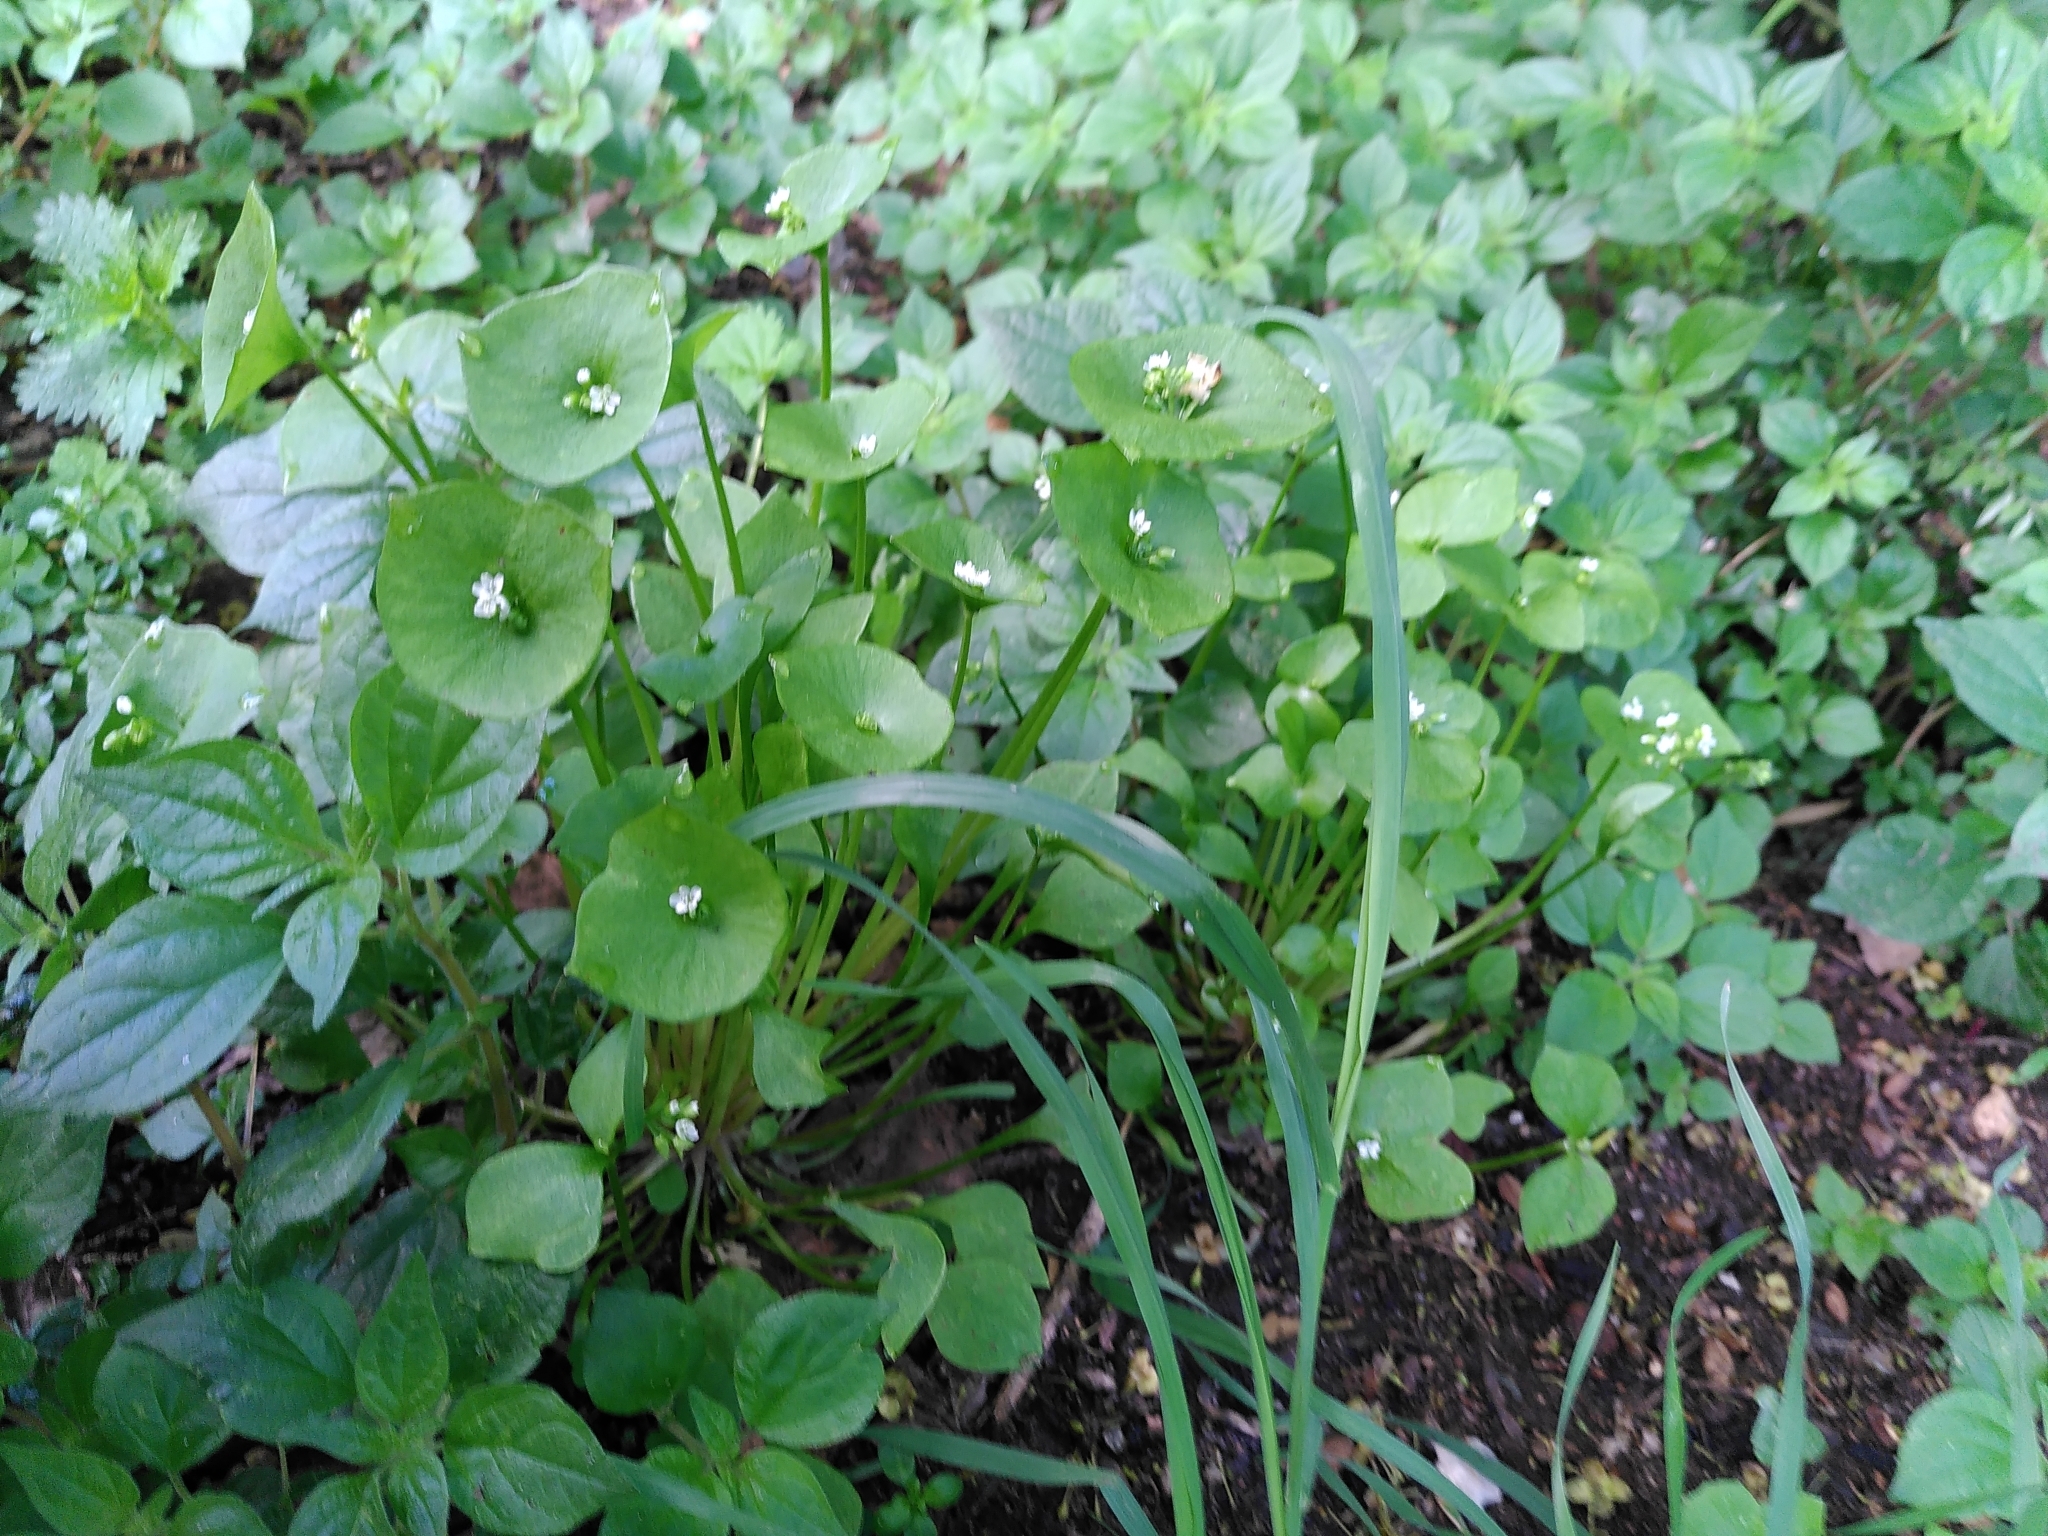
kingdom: Plantae
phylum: Tracheophyta
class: Magnoliopsida
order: Caryophyllales
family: Montiaceae
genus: Claytonia
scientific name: Claytonia perfoliata
